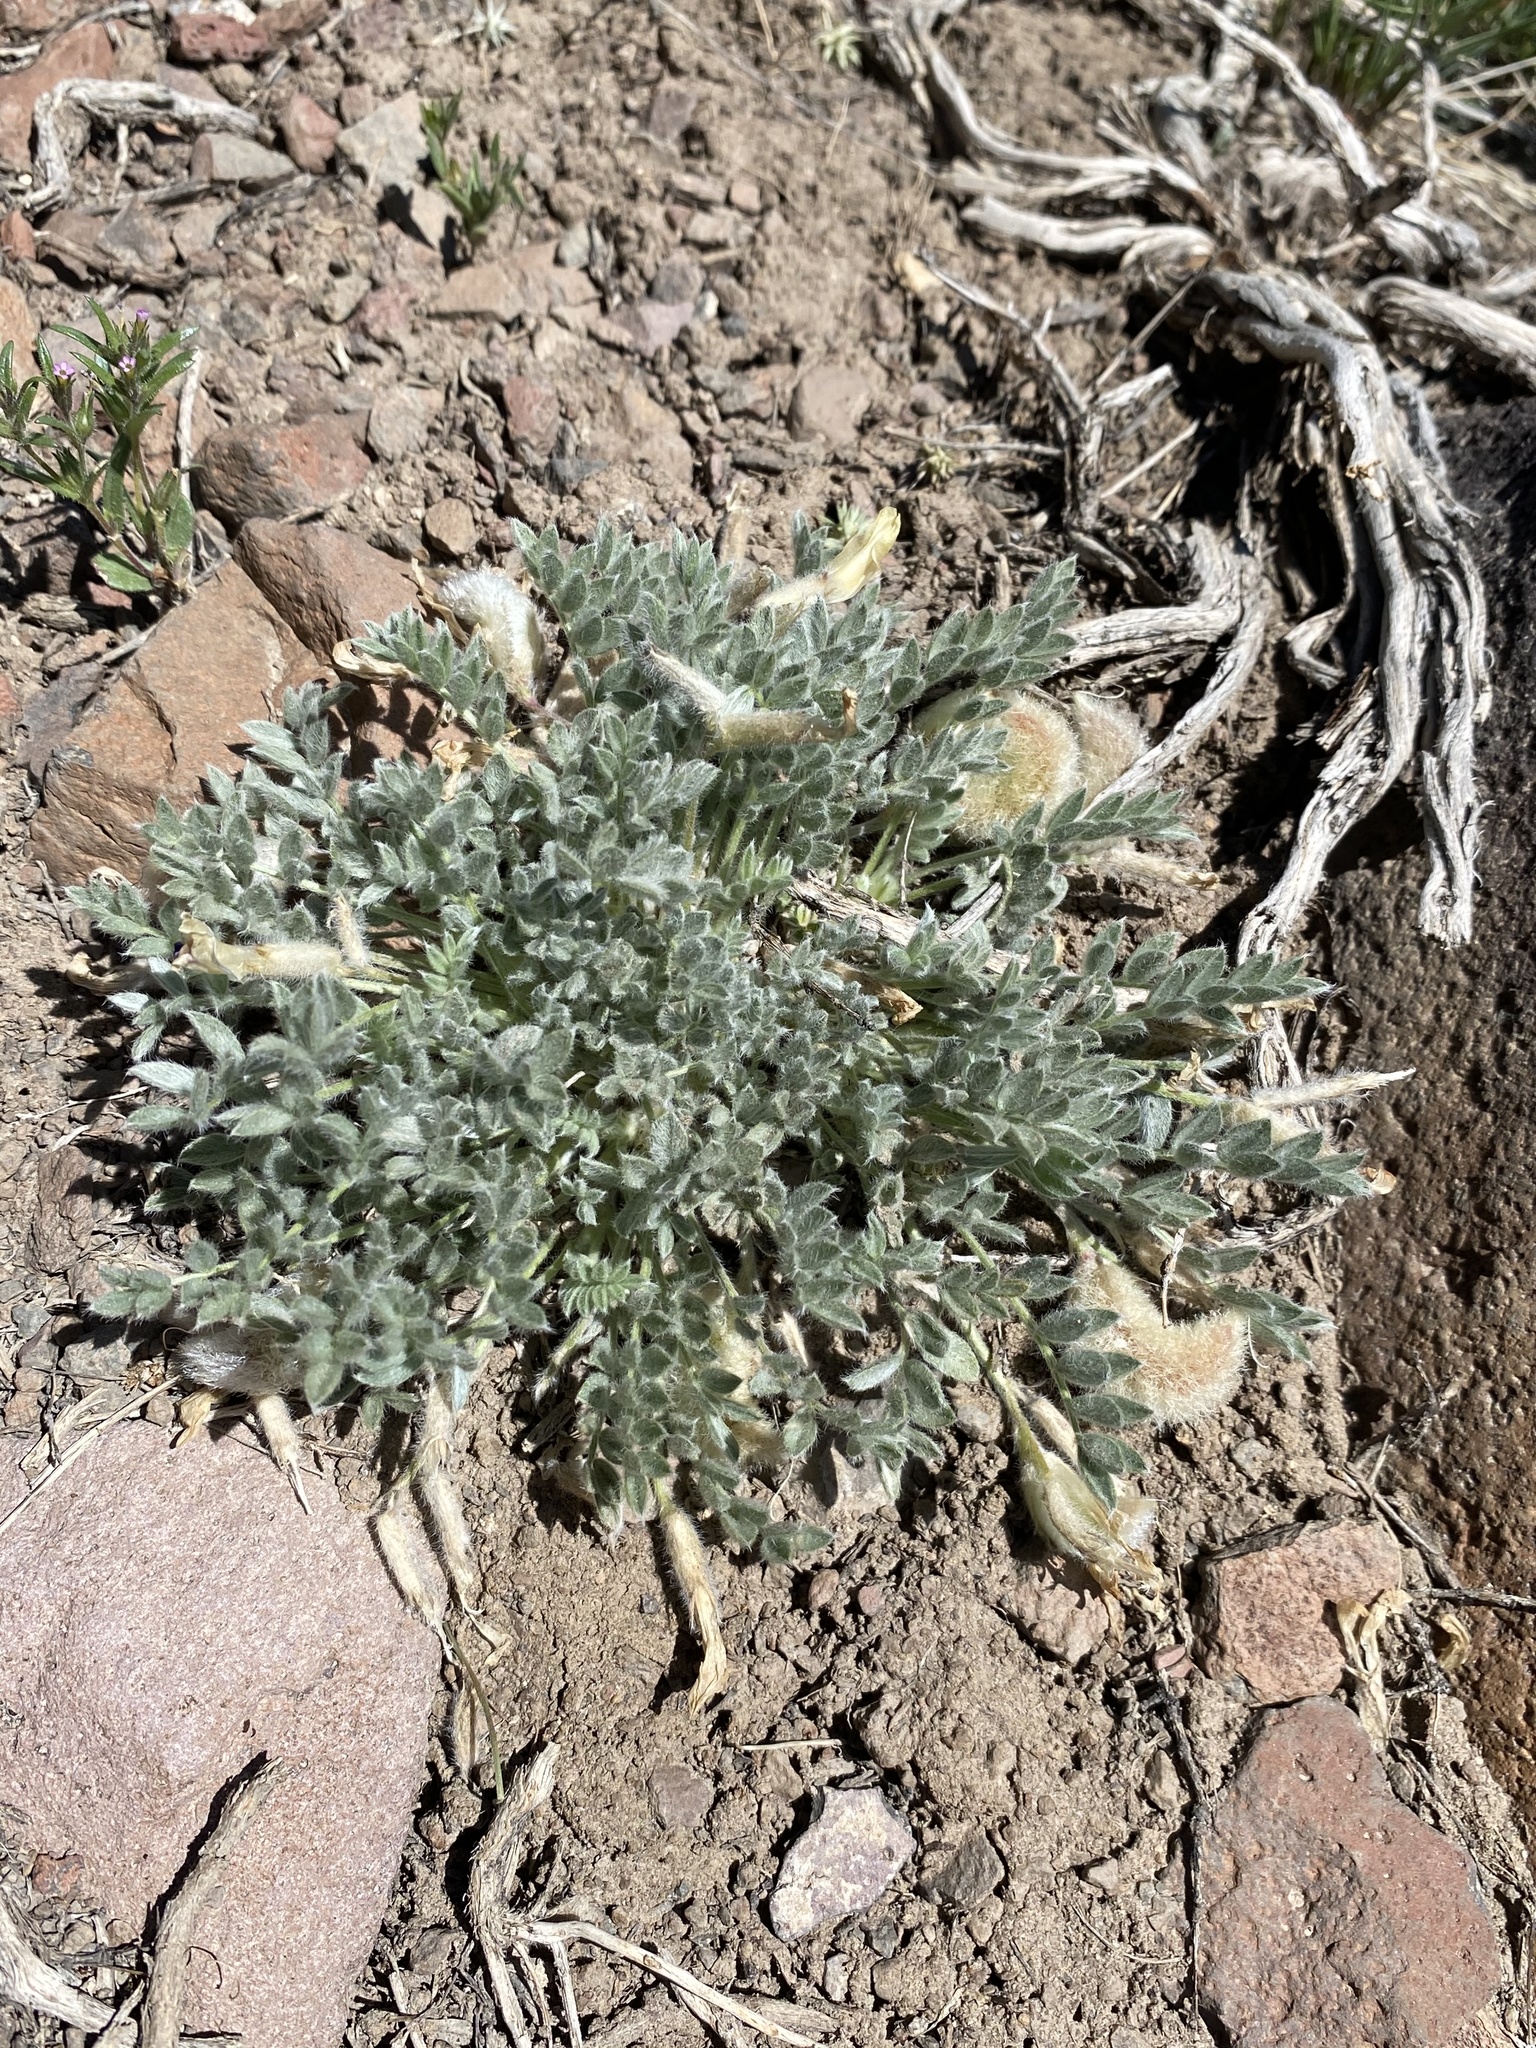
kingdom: Plantae
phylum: Tracheophyta
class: Magnoliopsida
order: Fabales
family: Fabaceae
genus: Astragalus
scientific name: Astragalus purshii
